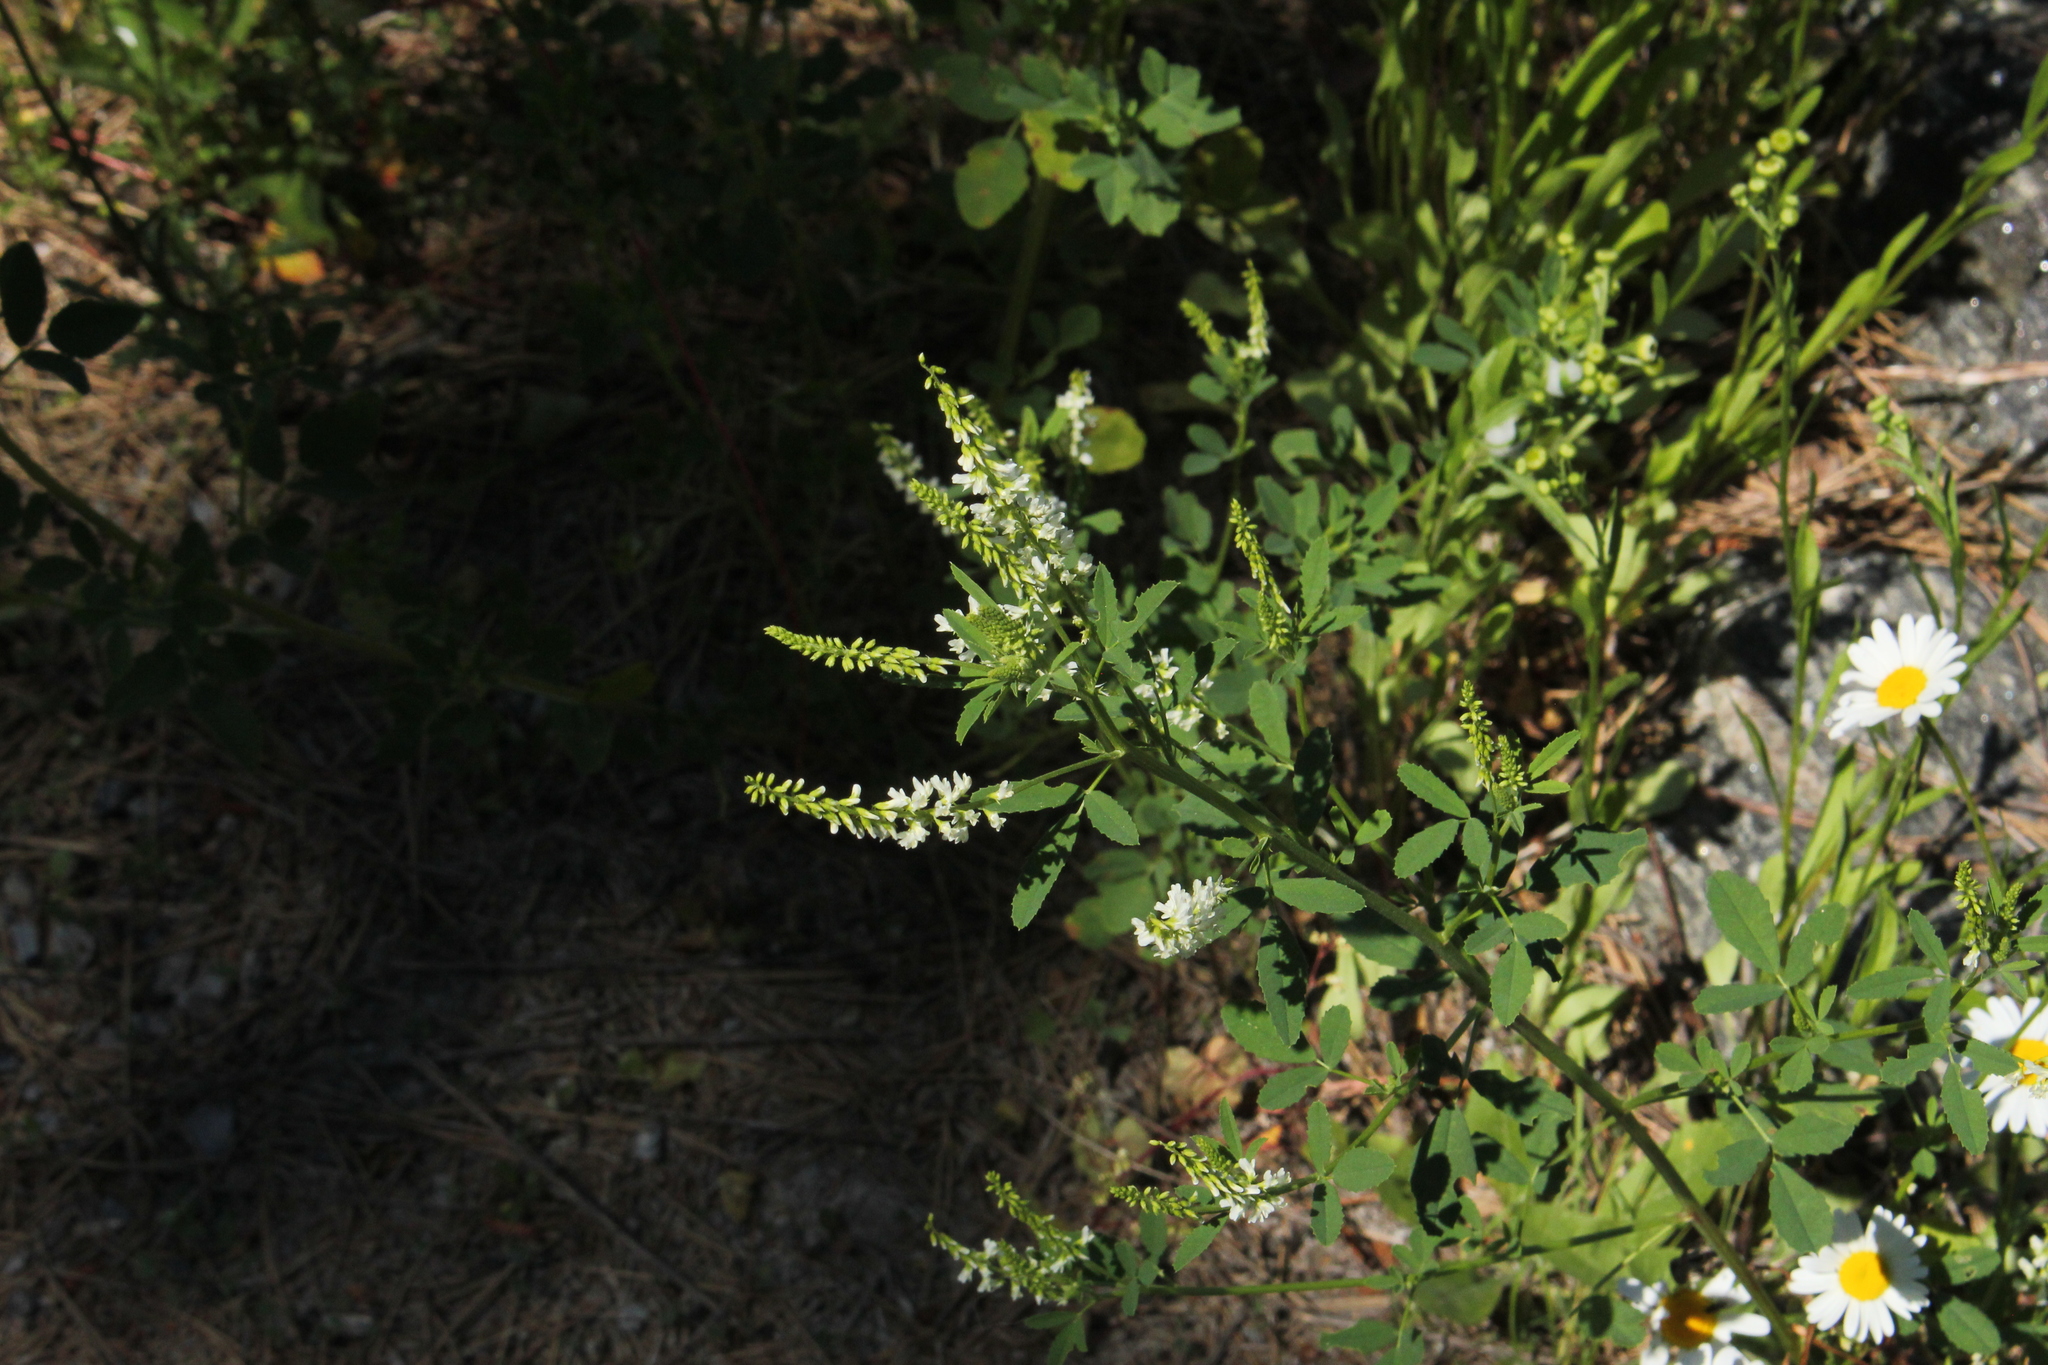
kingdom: Plantae
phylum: Tracheophyta
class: Magnoliopsida
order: Fabales
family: Fabaceae
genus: Melilotus
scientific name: Melilotus albus
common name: White melilot
